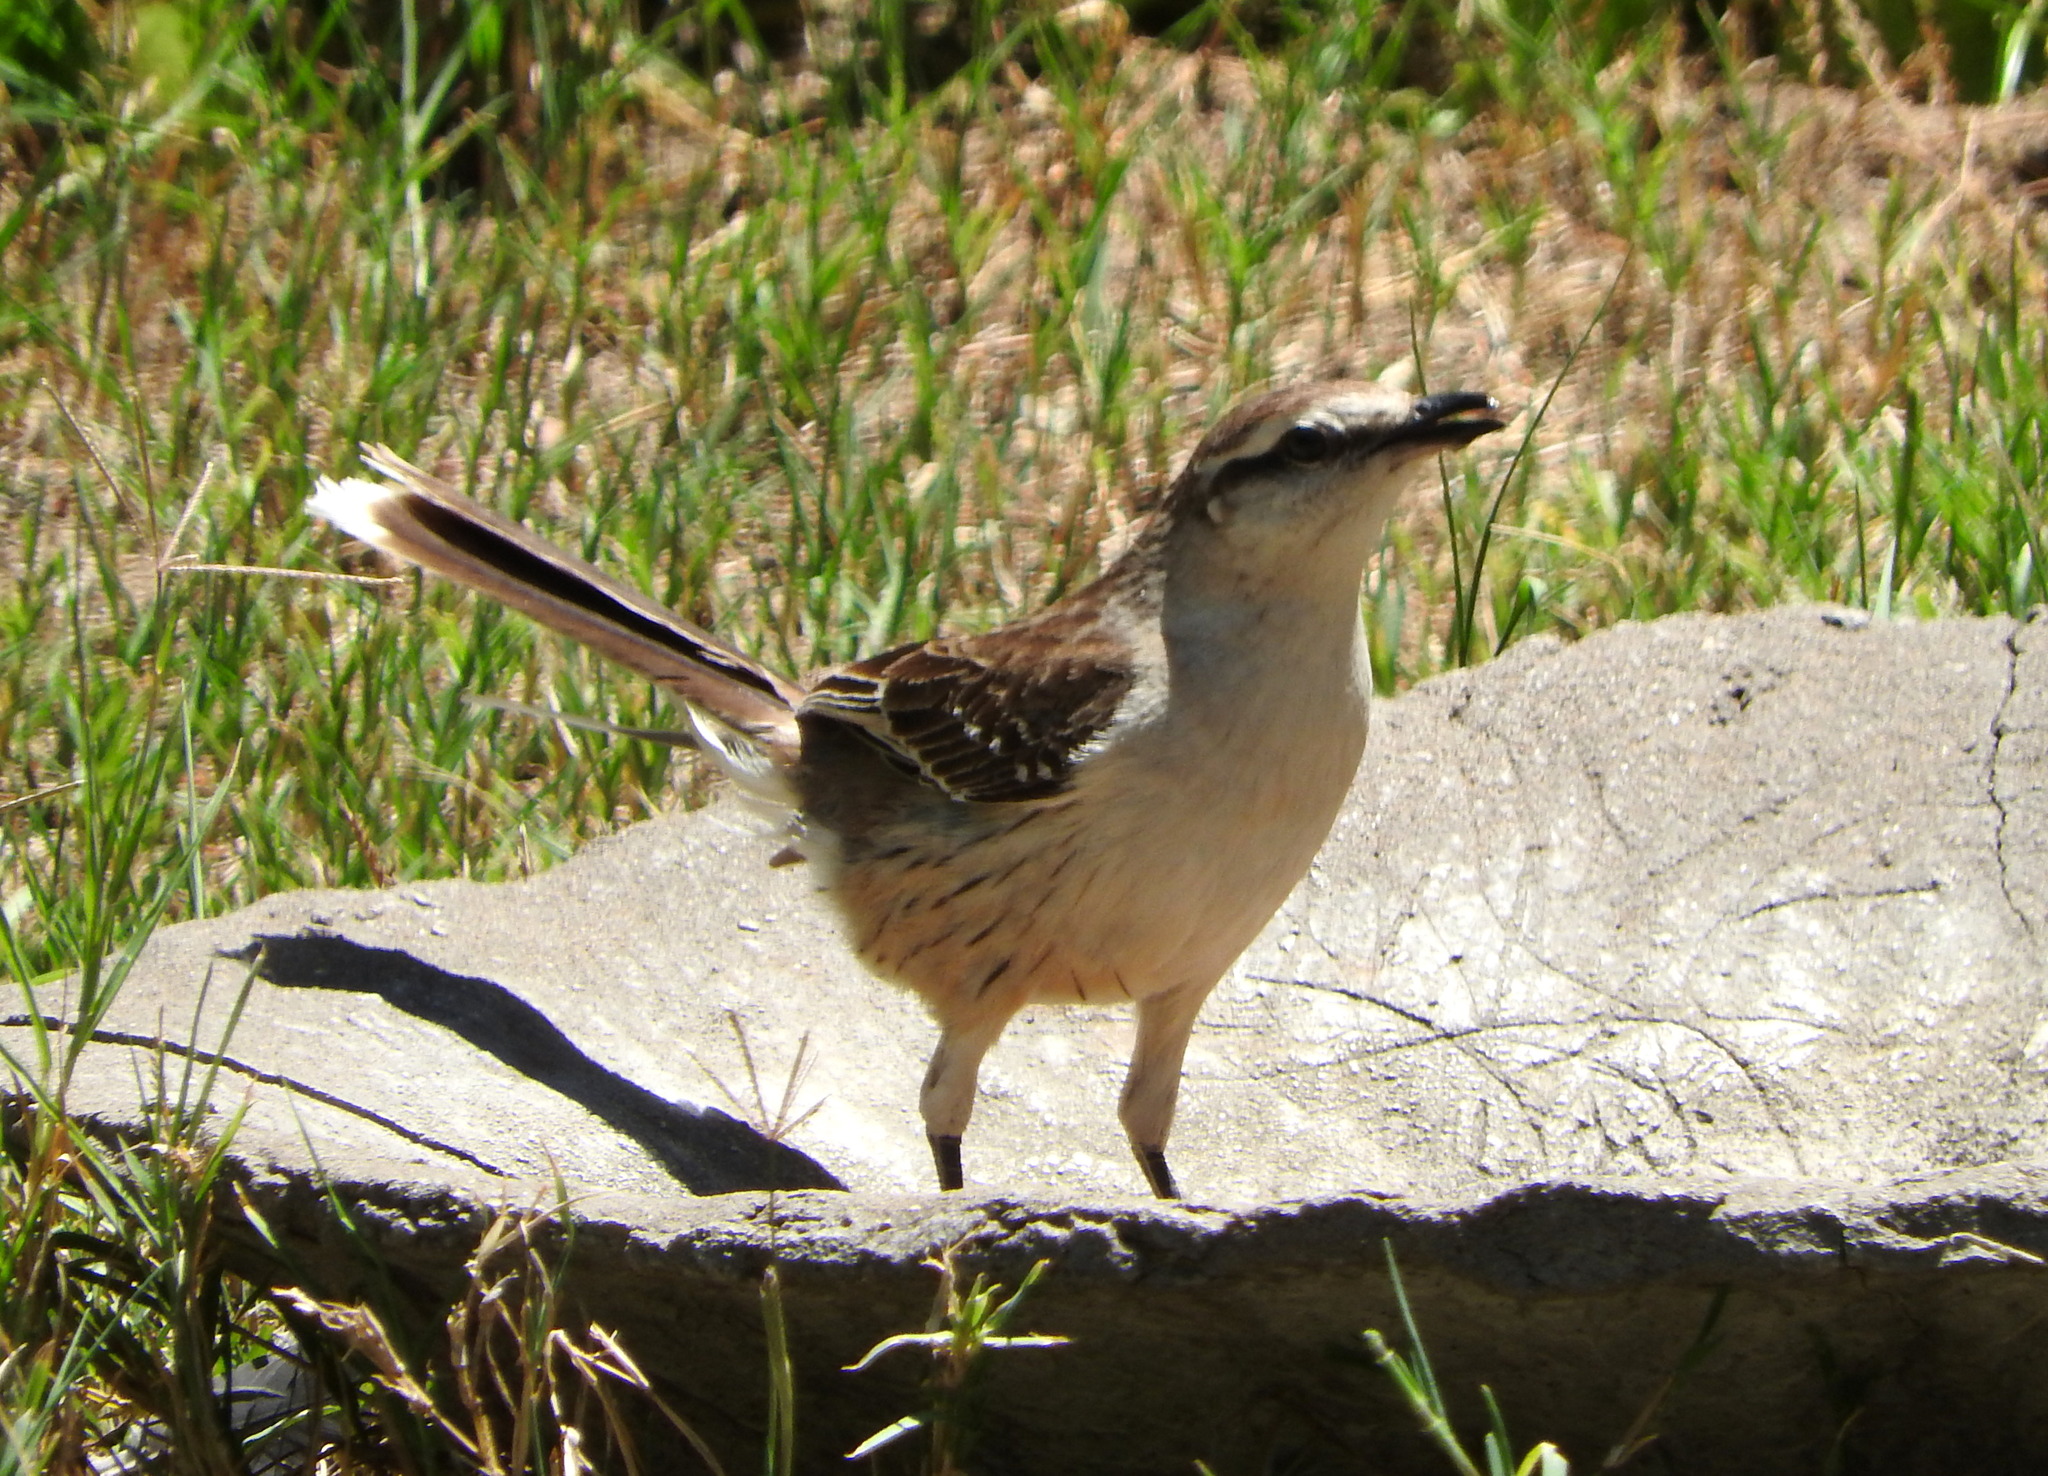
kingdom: Animalia
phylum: Chordata
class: Aves
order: Passeriformes
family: Mimidae
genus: Mimus
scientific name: Mimus saturninus
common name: Chalk-browed mockingbird
